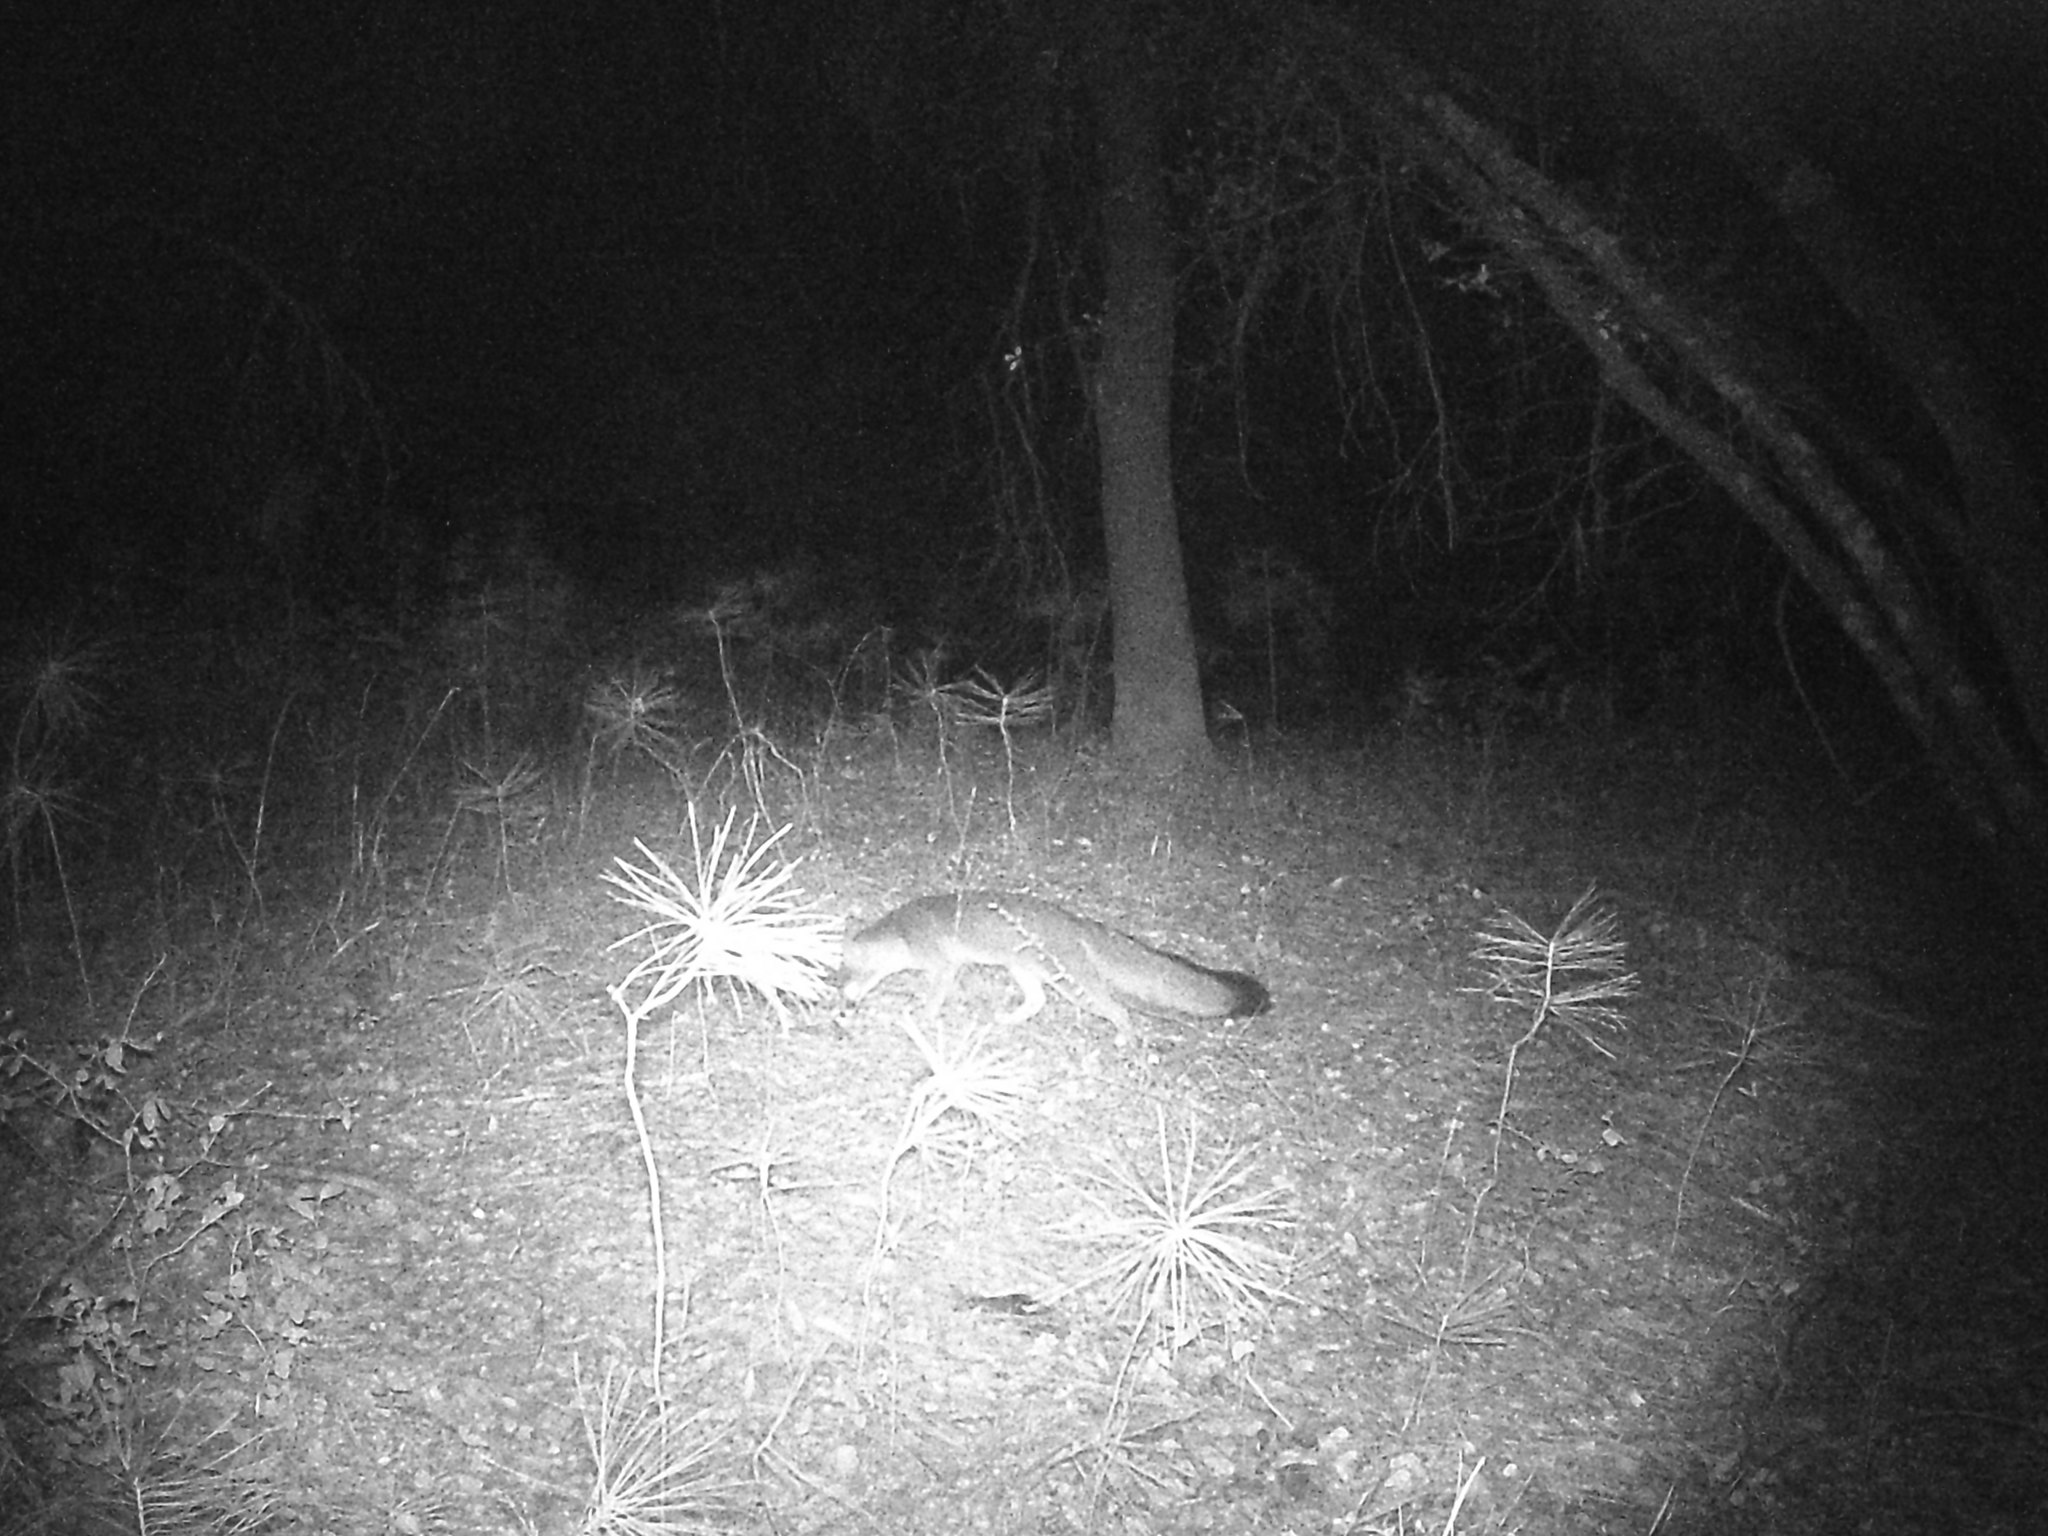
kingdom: Animalia
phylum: Chordata
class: Mammalia
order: Carnivora
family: Canidae
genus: Urocyon
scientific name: Urocyon cinereoargenteus
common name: Gray fox
